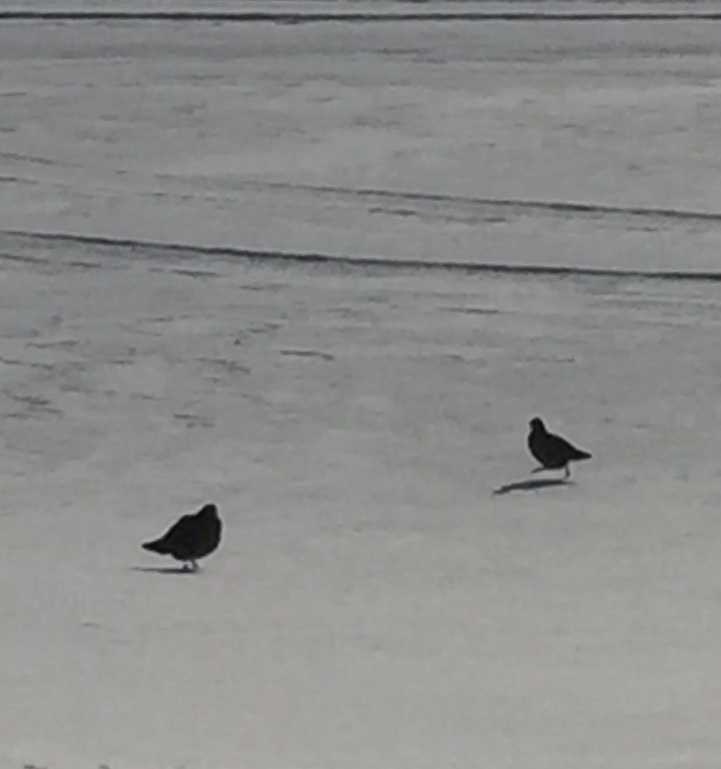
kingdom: Animalia
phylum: Chordata
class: Aves
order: Galliformes
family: Phasianidae
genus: Perdix
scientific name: Perdix perdix
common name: Grey partridge
